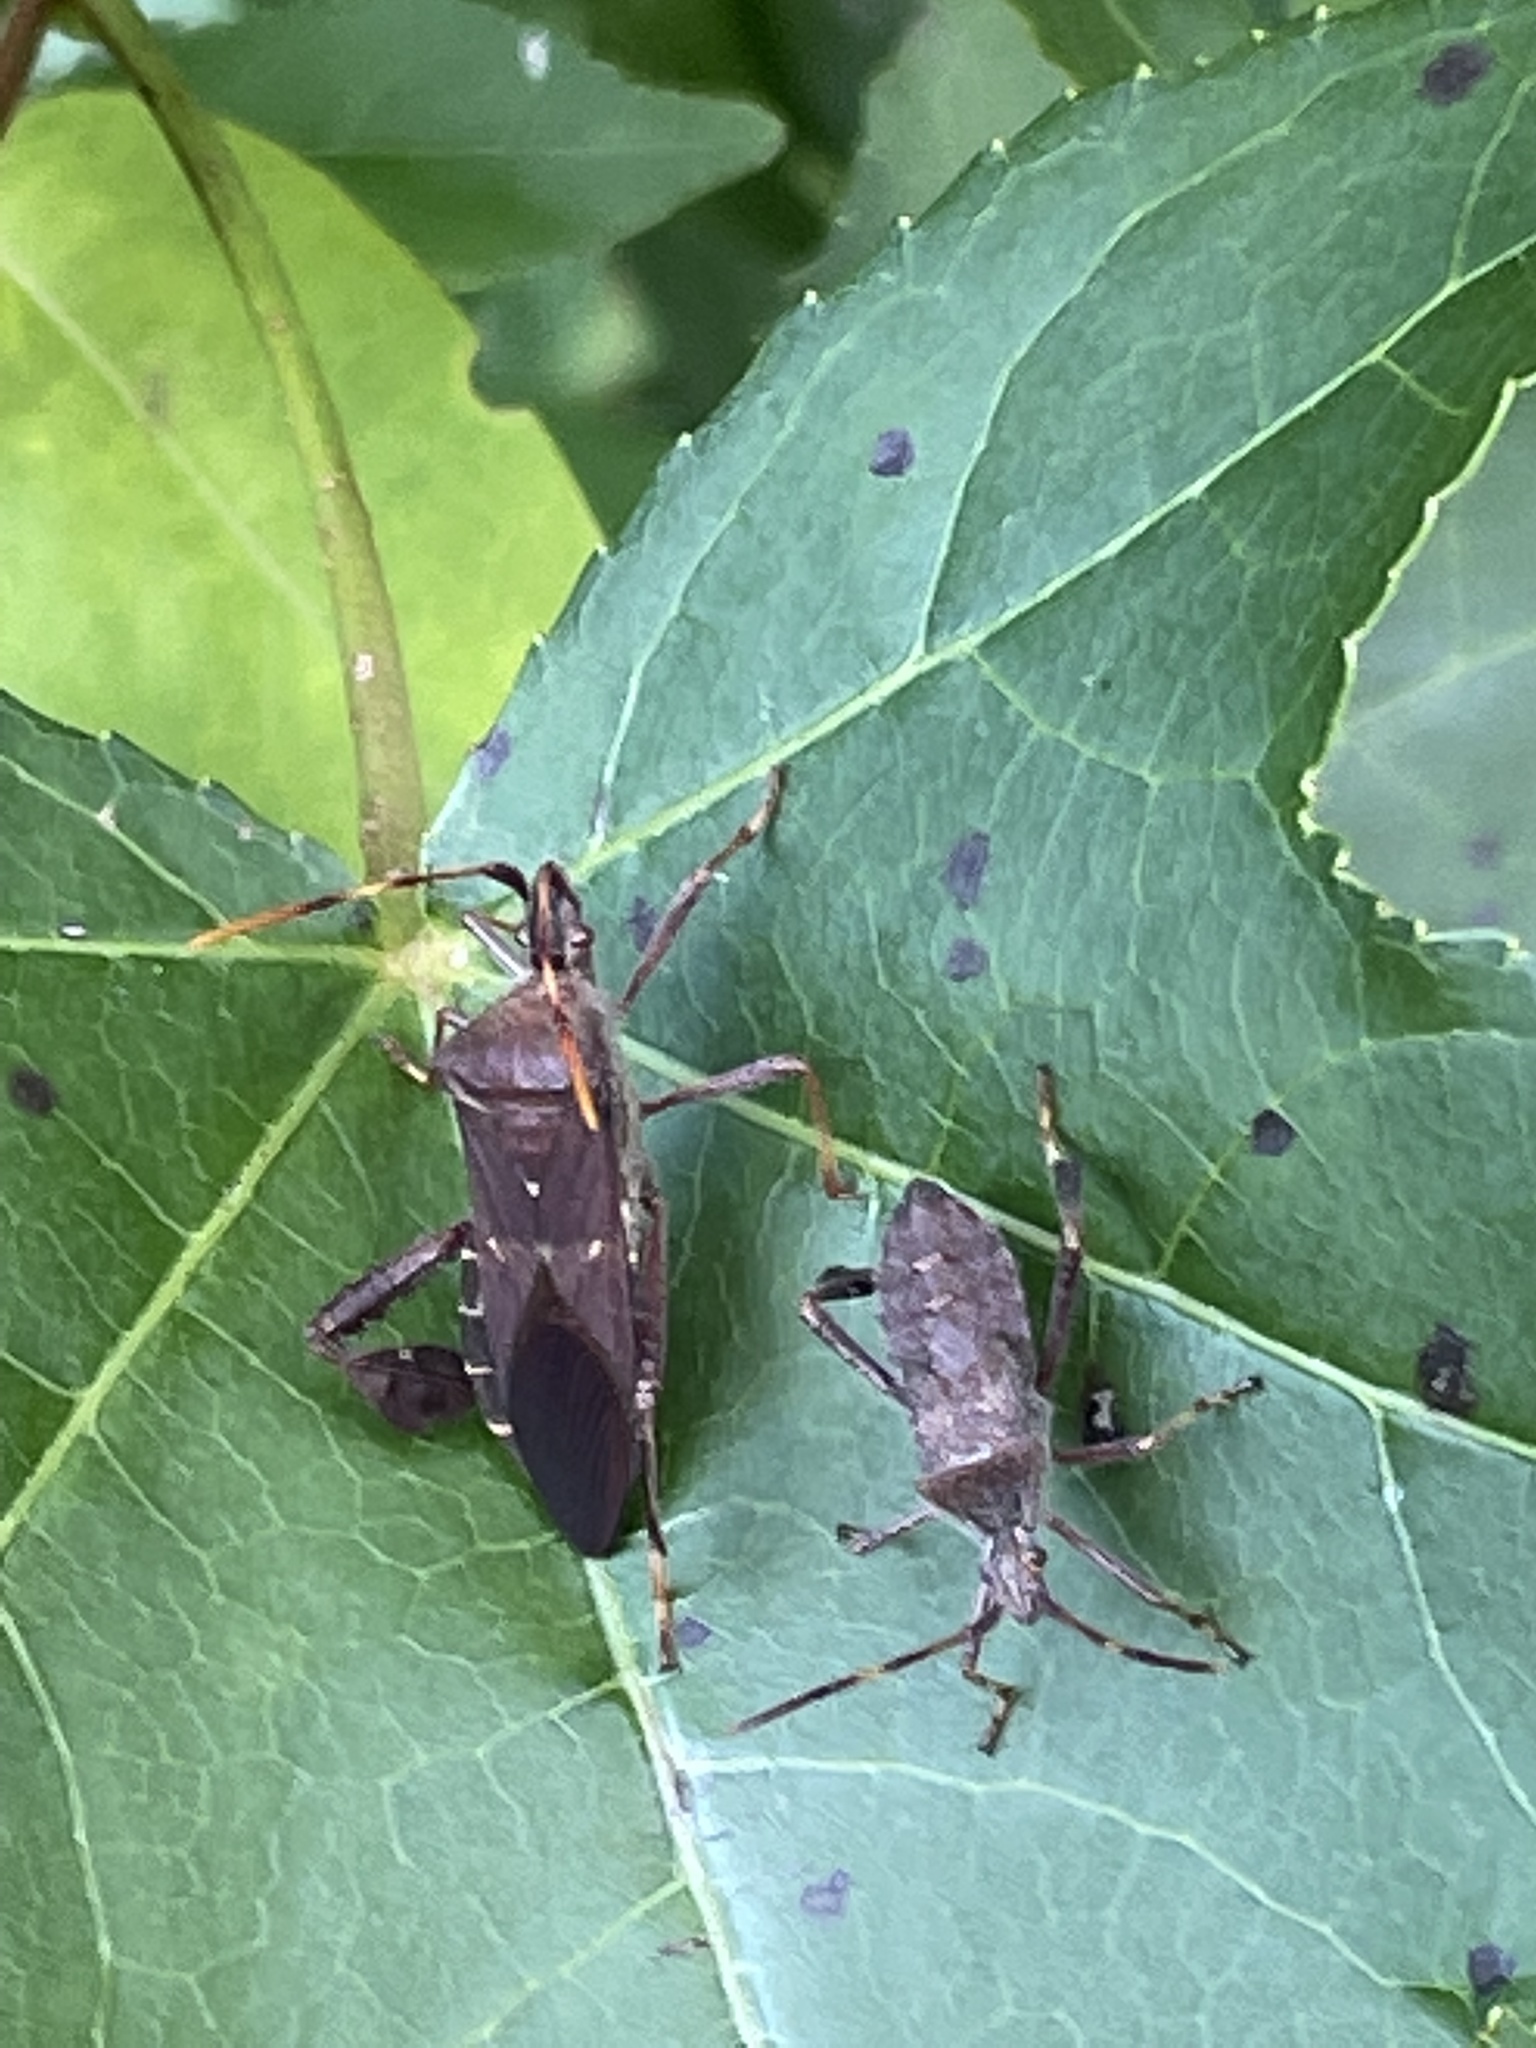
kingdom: Animalia
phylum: Arthropoda
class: Insecta
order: Hemiptera
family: Coreidae
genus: Leptoglossus
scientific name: Leptoglossus oppositus
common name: Northern leaf-footed bug
